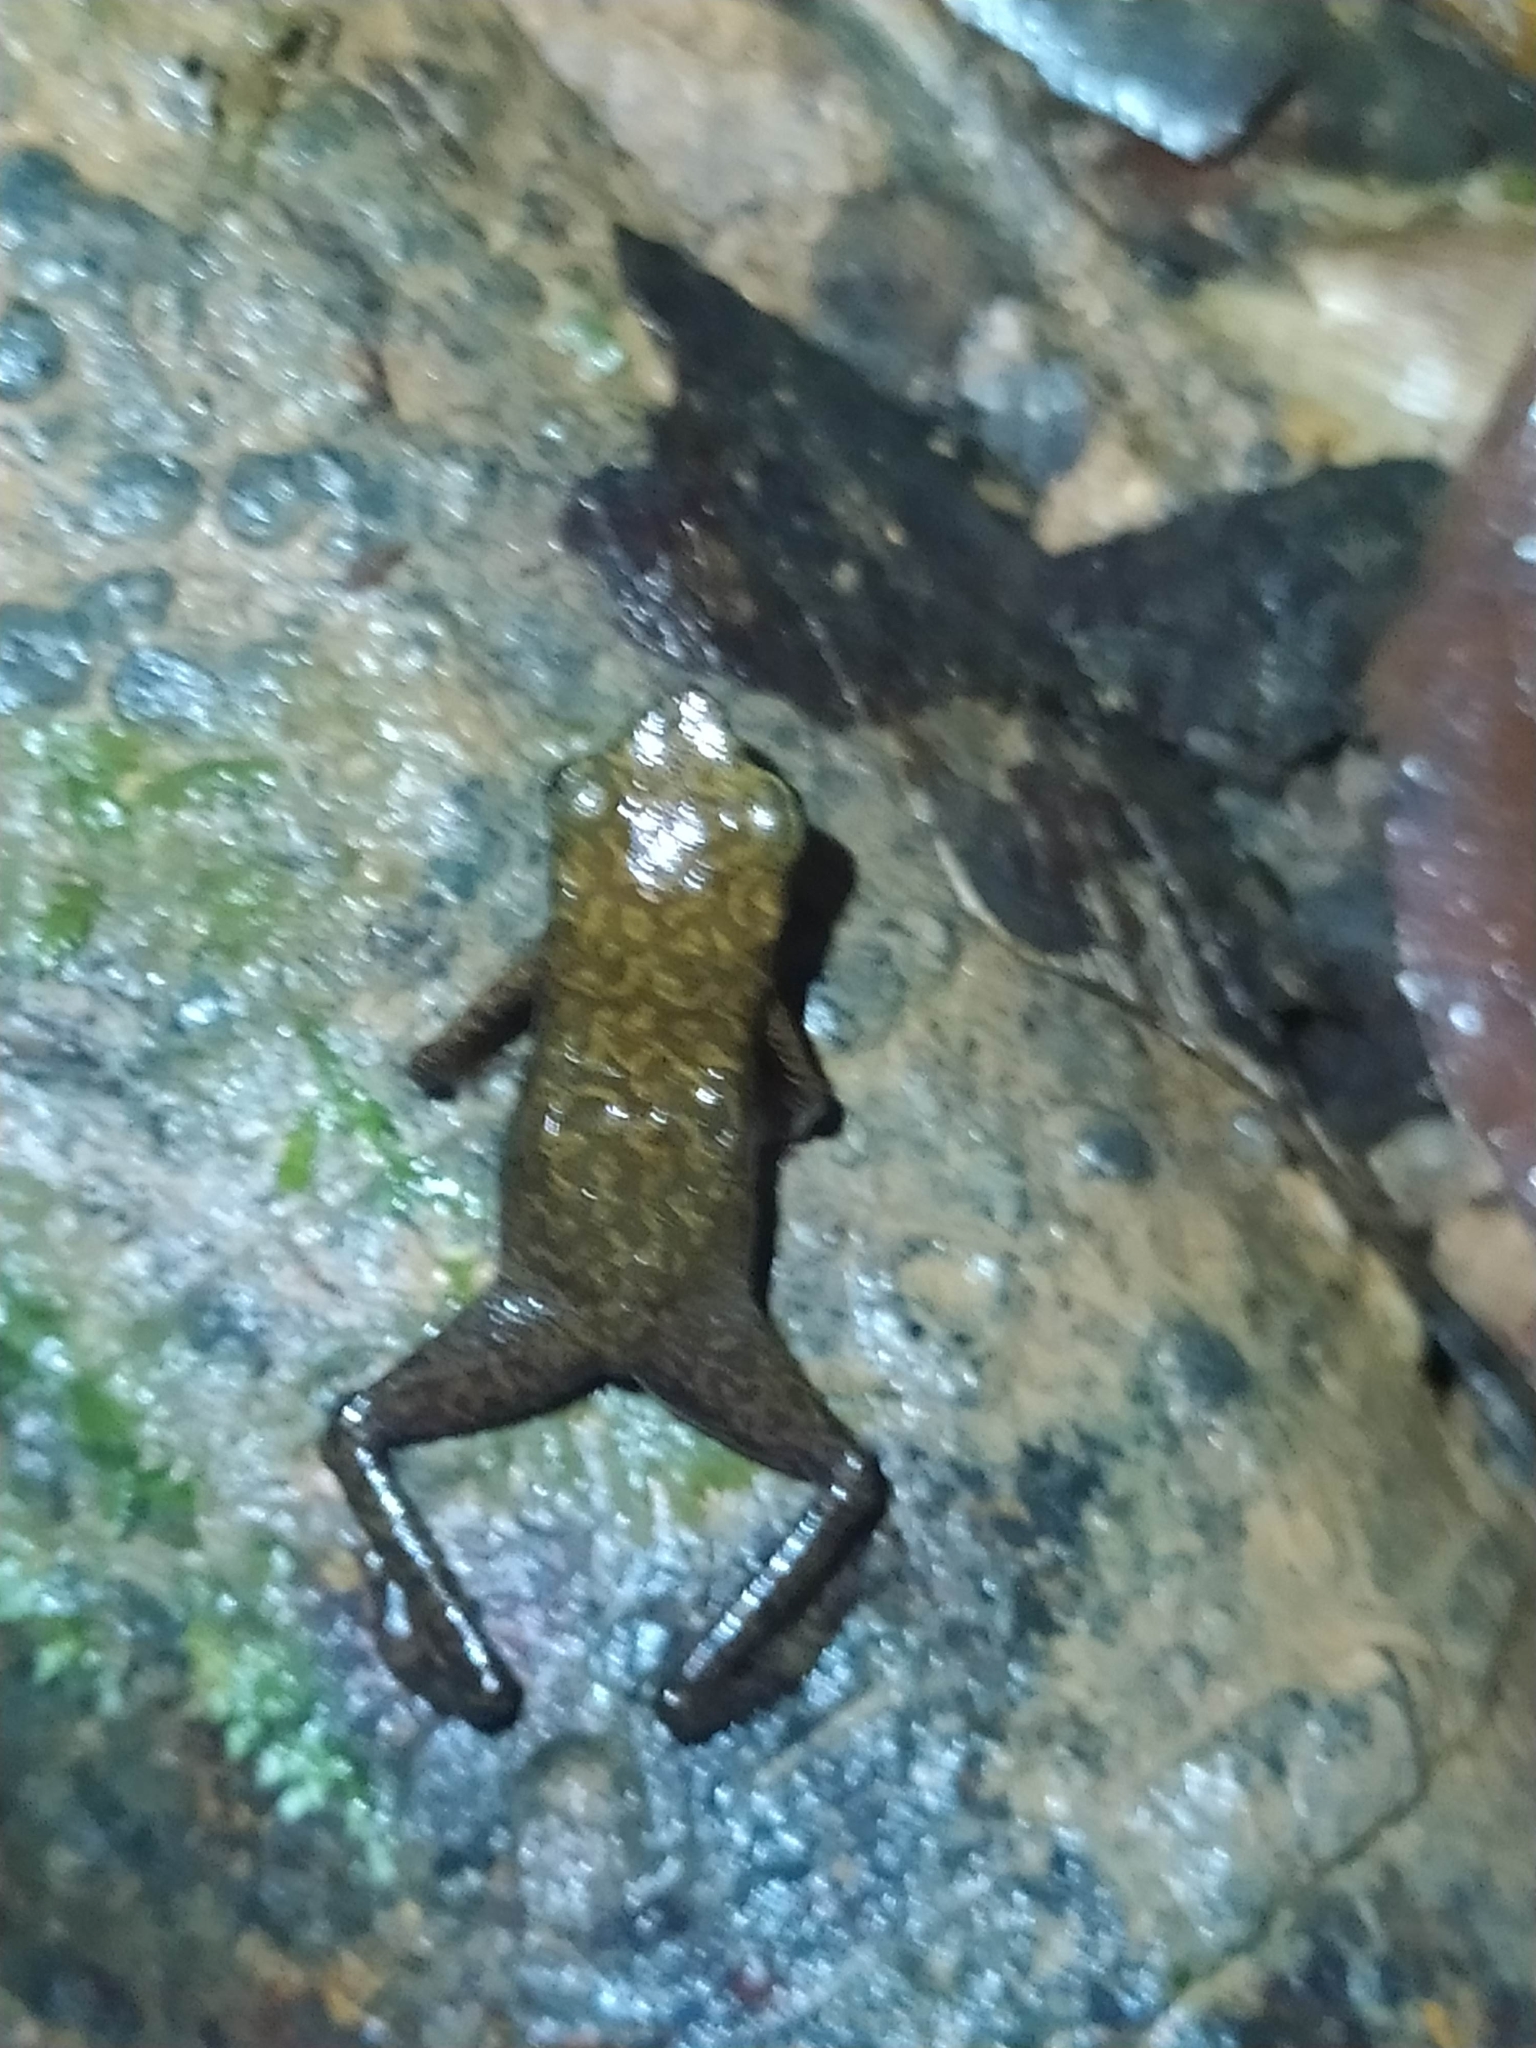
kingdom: Animalia
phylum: Chordata
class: Amphibia
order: Anura
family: Bufonidae
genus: Atelopus
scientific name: Atelopus flavescens
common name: Cayenne stubfoot toad
